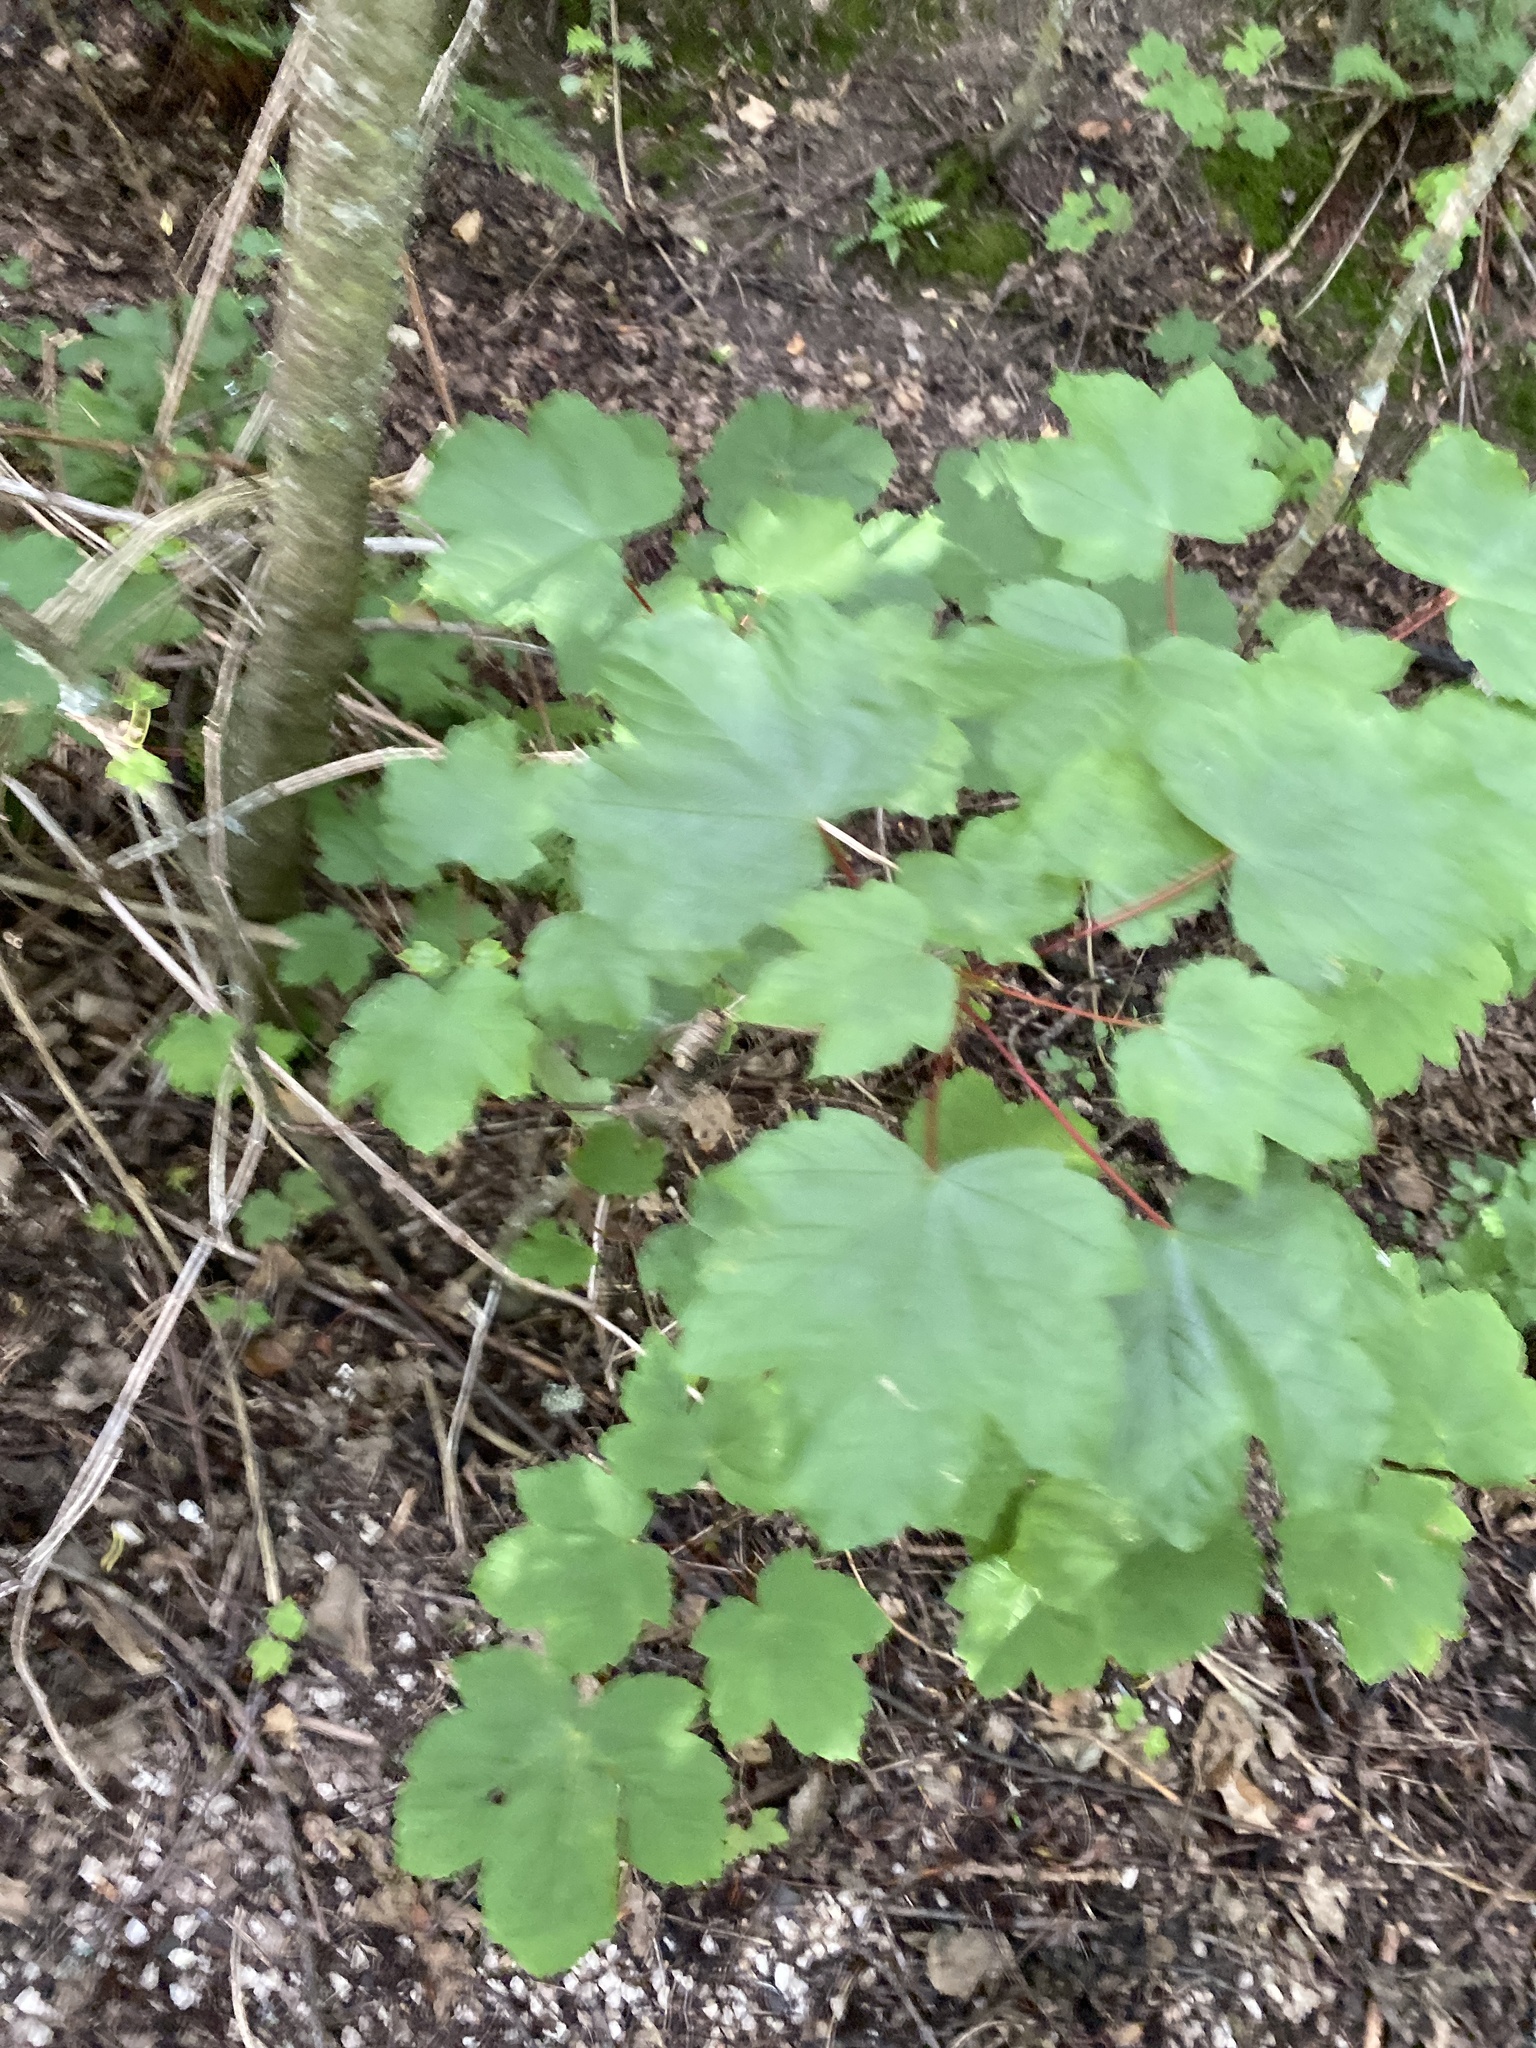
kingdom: Plantae
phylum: Tracheophyta
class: Magnoliopsida
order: Sapindales
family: Sapindaceae
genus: Acer
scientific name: Acer pseudoplatanus
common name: Sycamore
